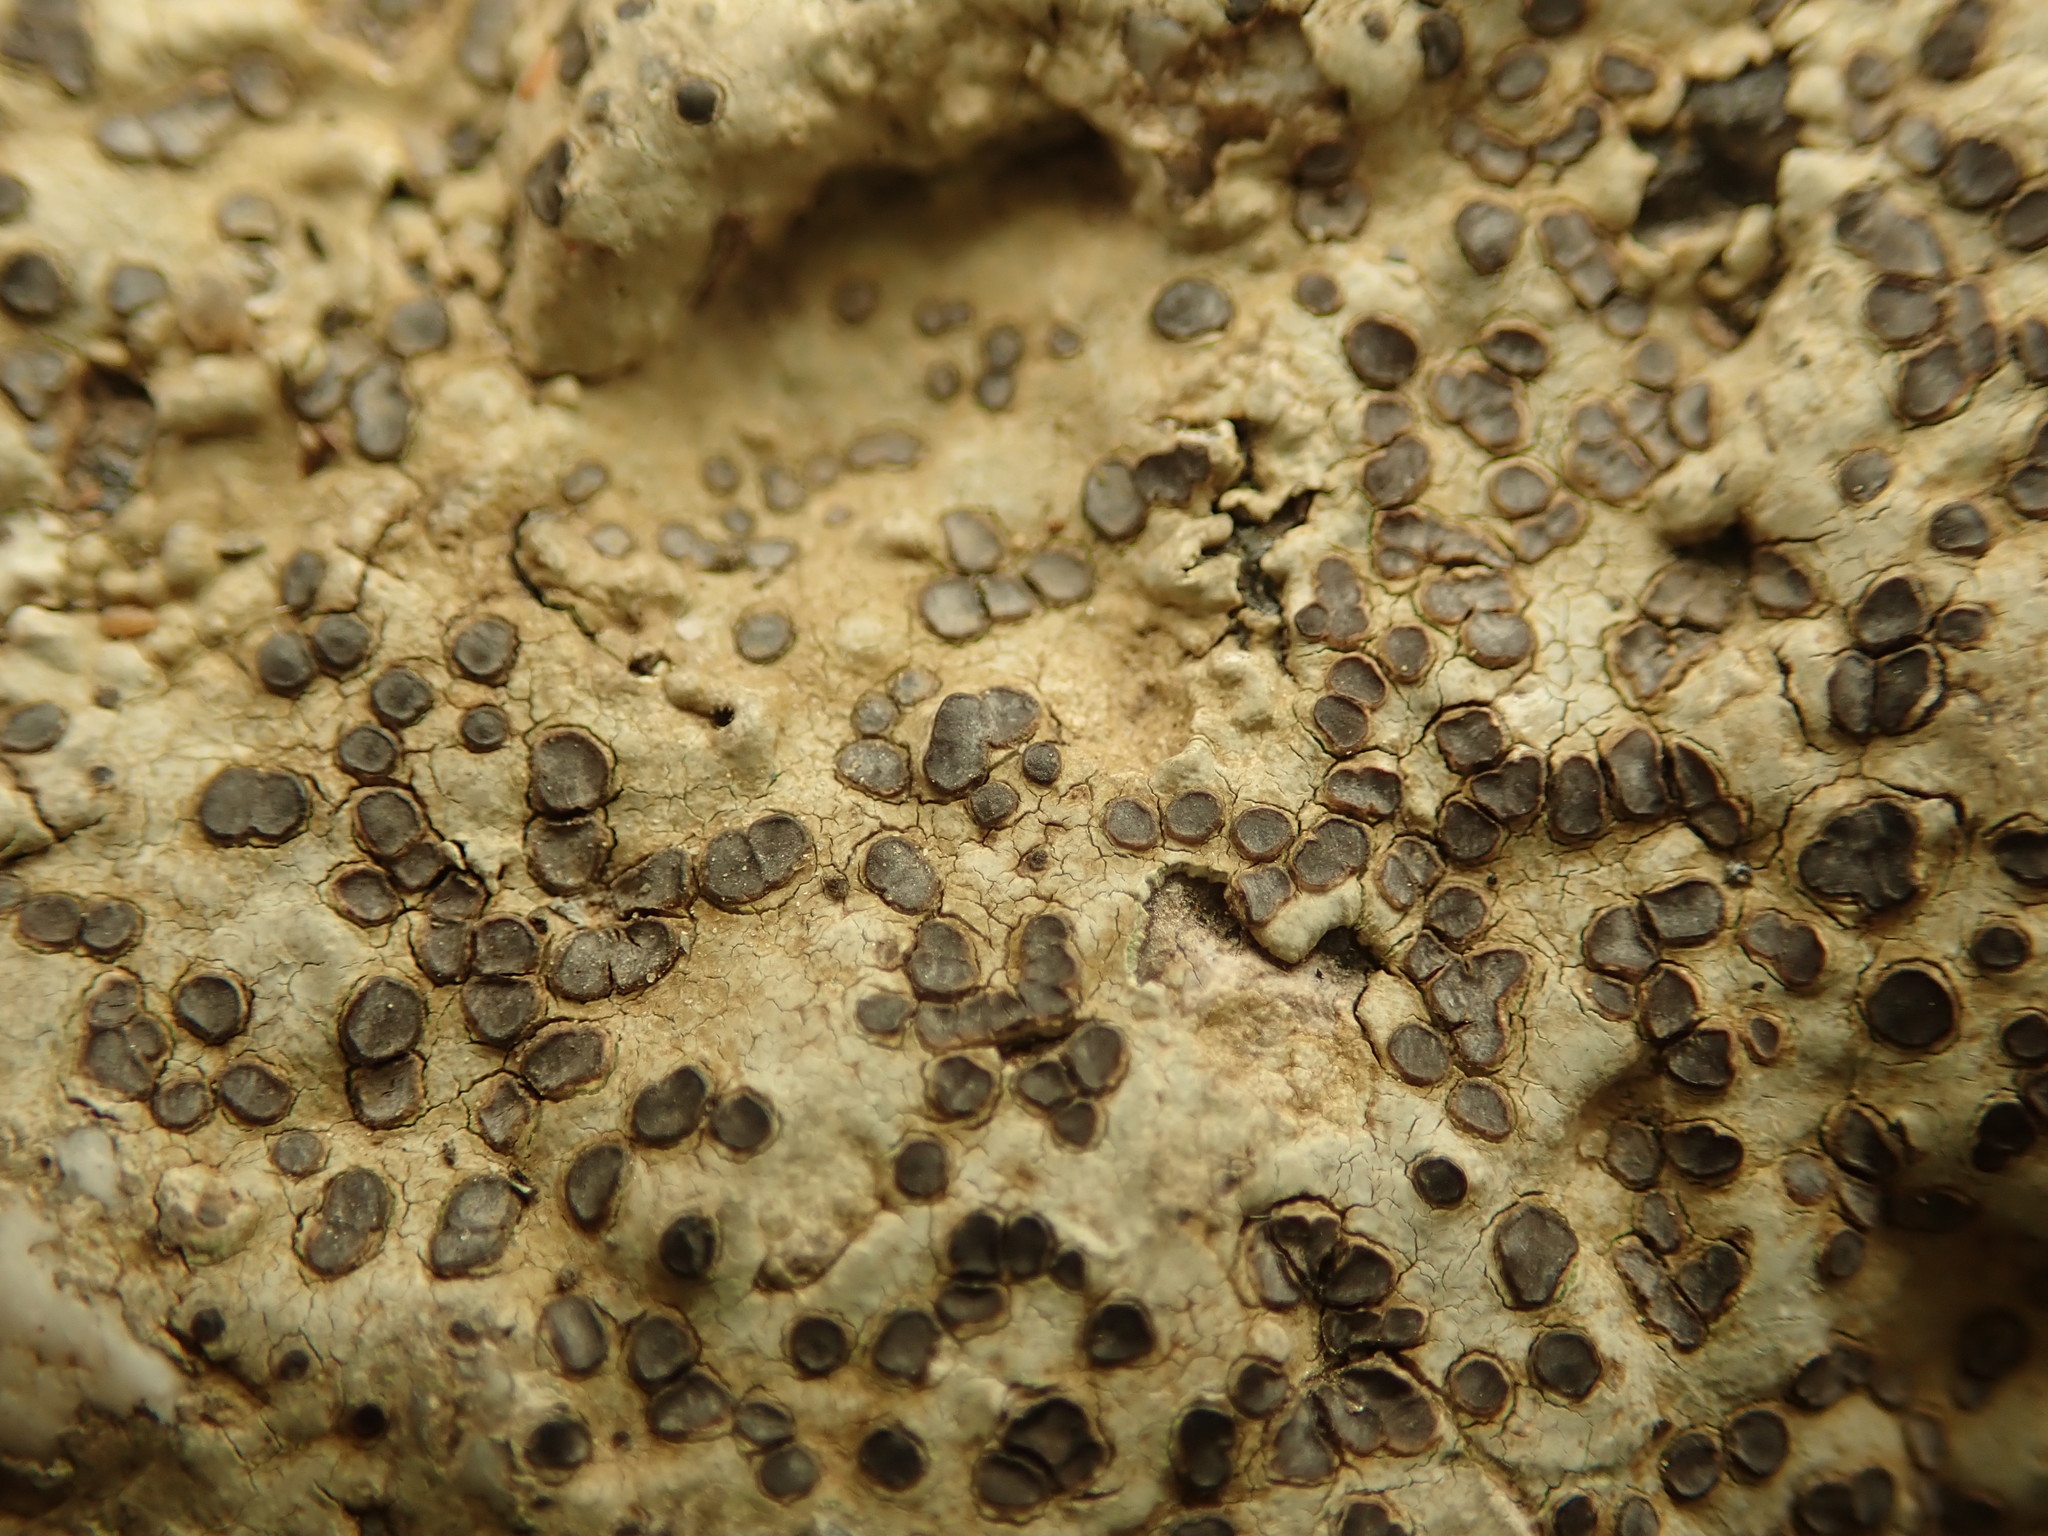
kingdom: Fungi
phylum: Ascomycota
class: Lecanoromycetes
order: Lecideales
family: Lecideaceae
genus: Porpidia
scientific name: Porpidia albocaerulescens
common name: Smokey-eyed boulder lichen
